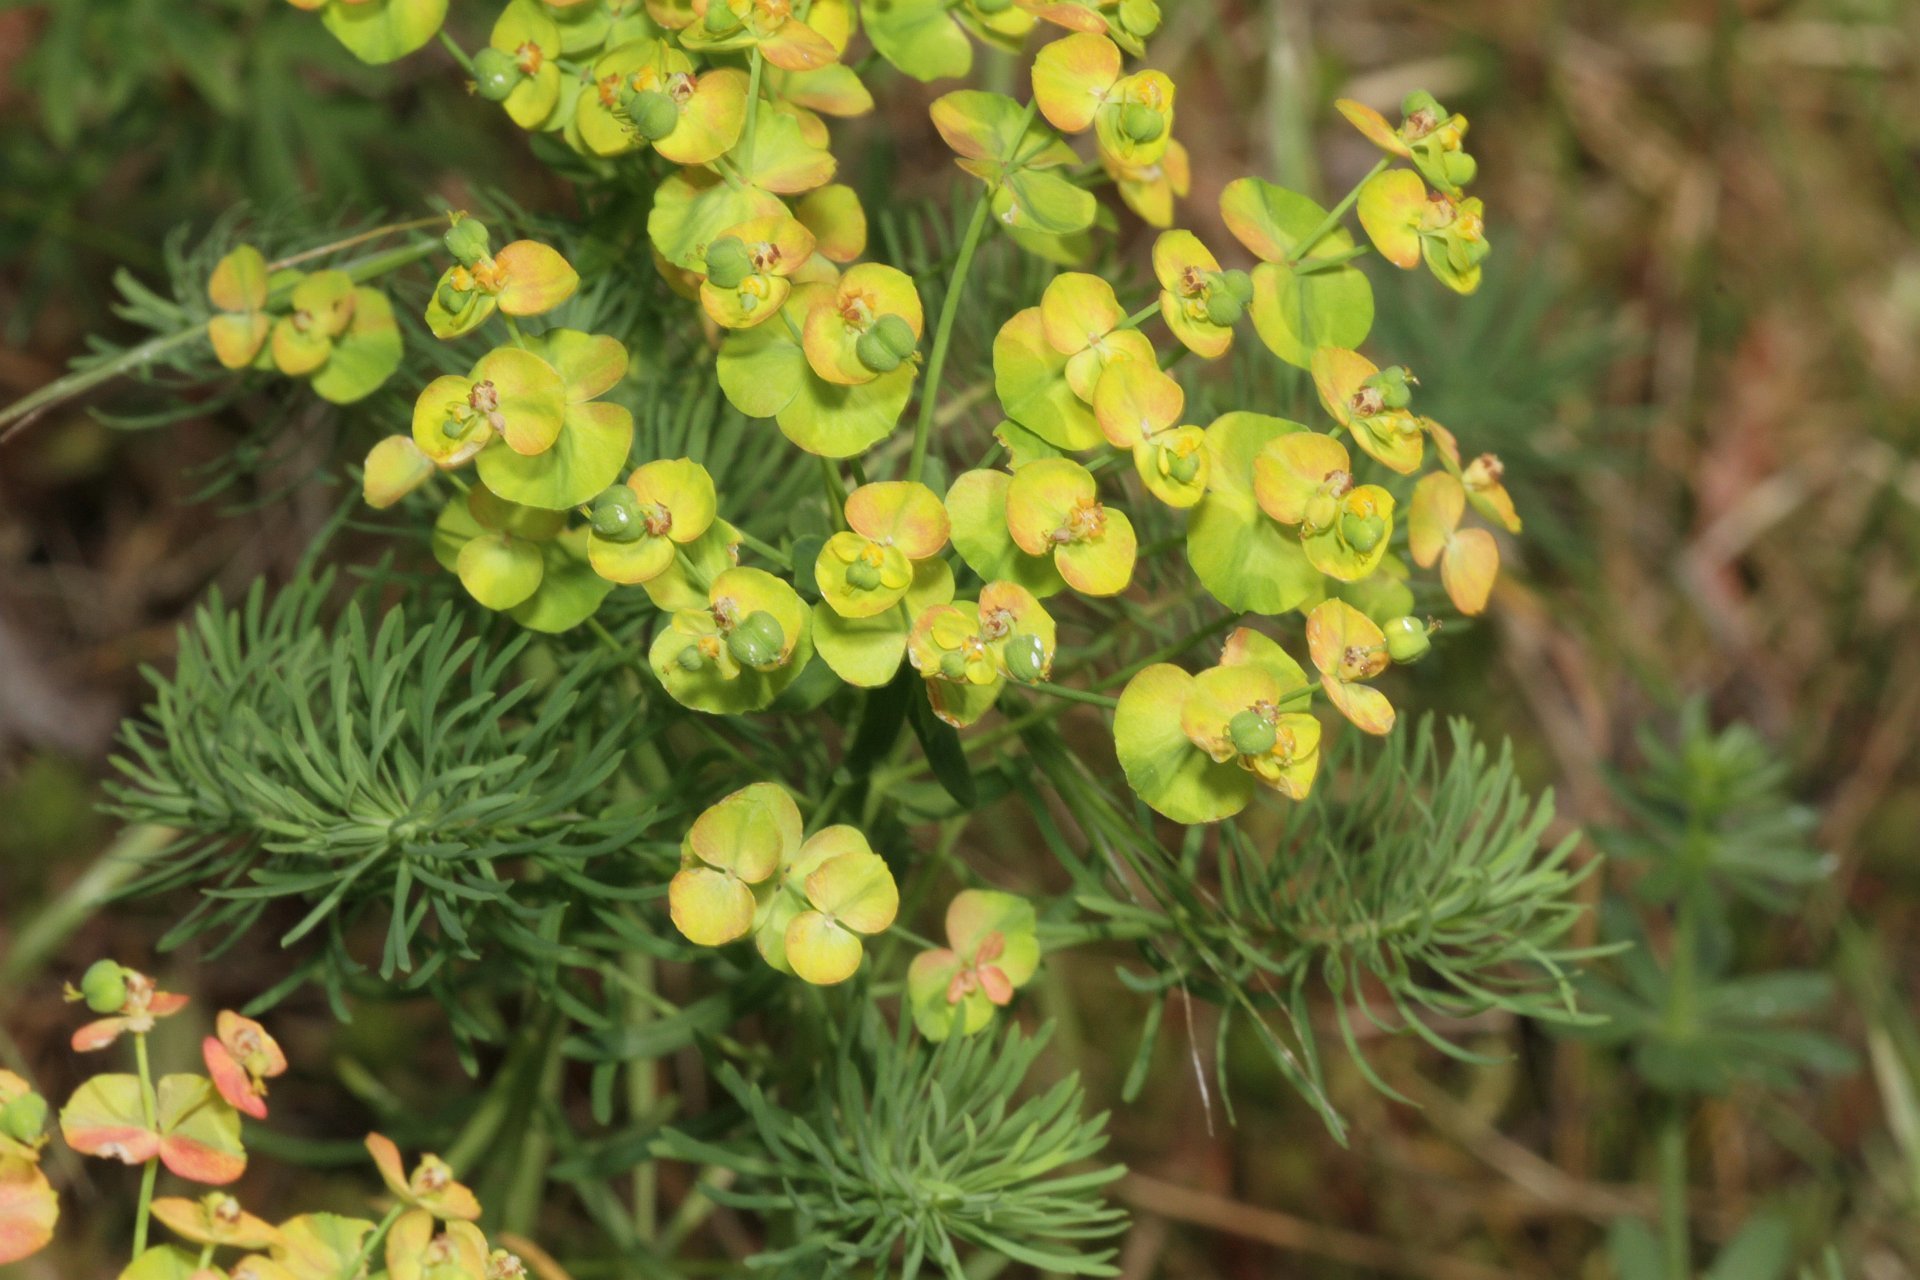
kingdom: Plantae
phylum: Tracheophyta
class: Magnoliopsida
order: Malpighiales
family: Euphorbiaceae
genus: Euphorbia
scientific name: Euphorbia cyparissias
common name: Cypress spurge
